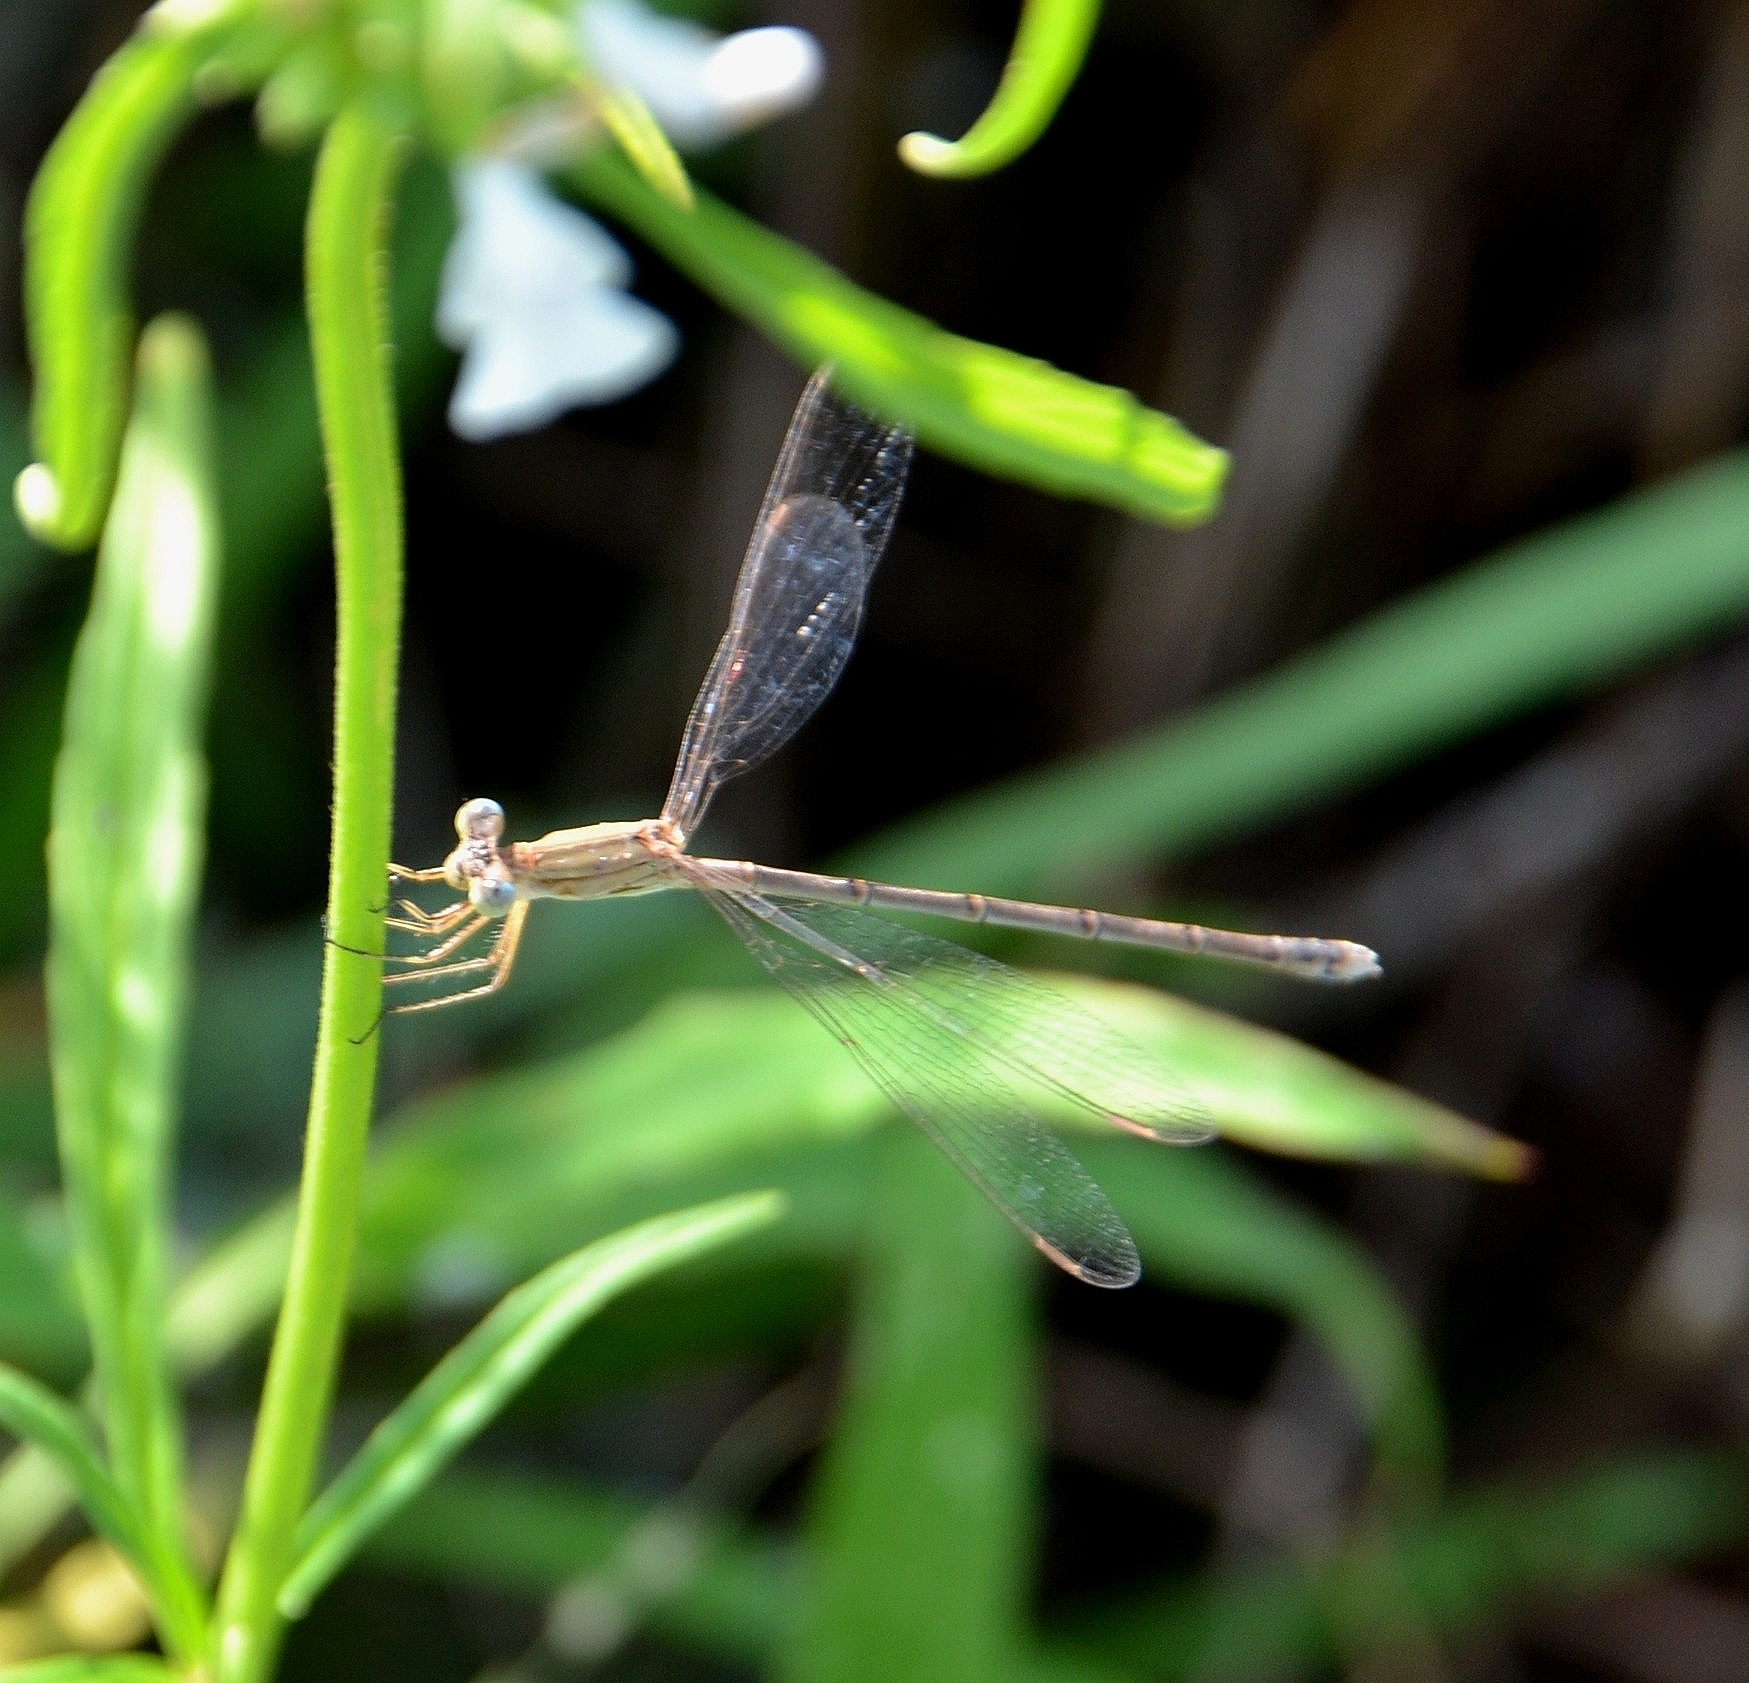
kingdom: Animalia
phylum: Arthropoda
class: Insecta
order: Odonata
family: Lestidae
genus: Lestes
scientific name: Lestes concinnus
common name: Dusky spreadwing
